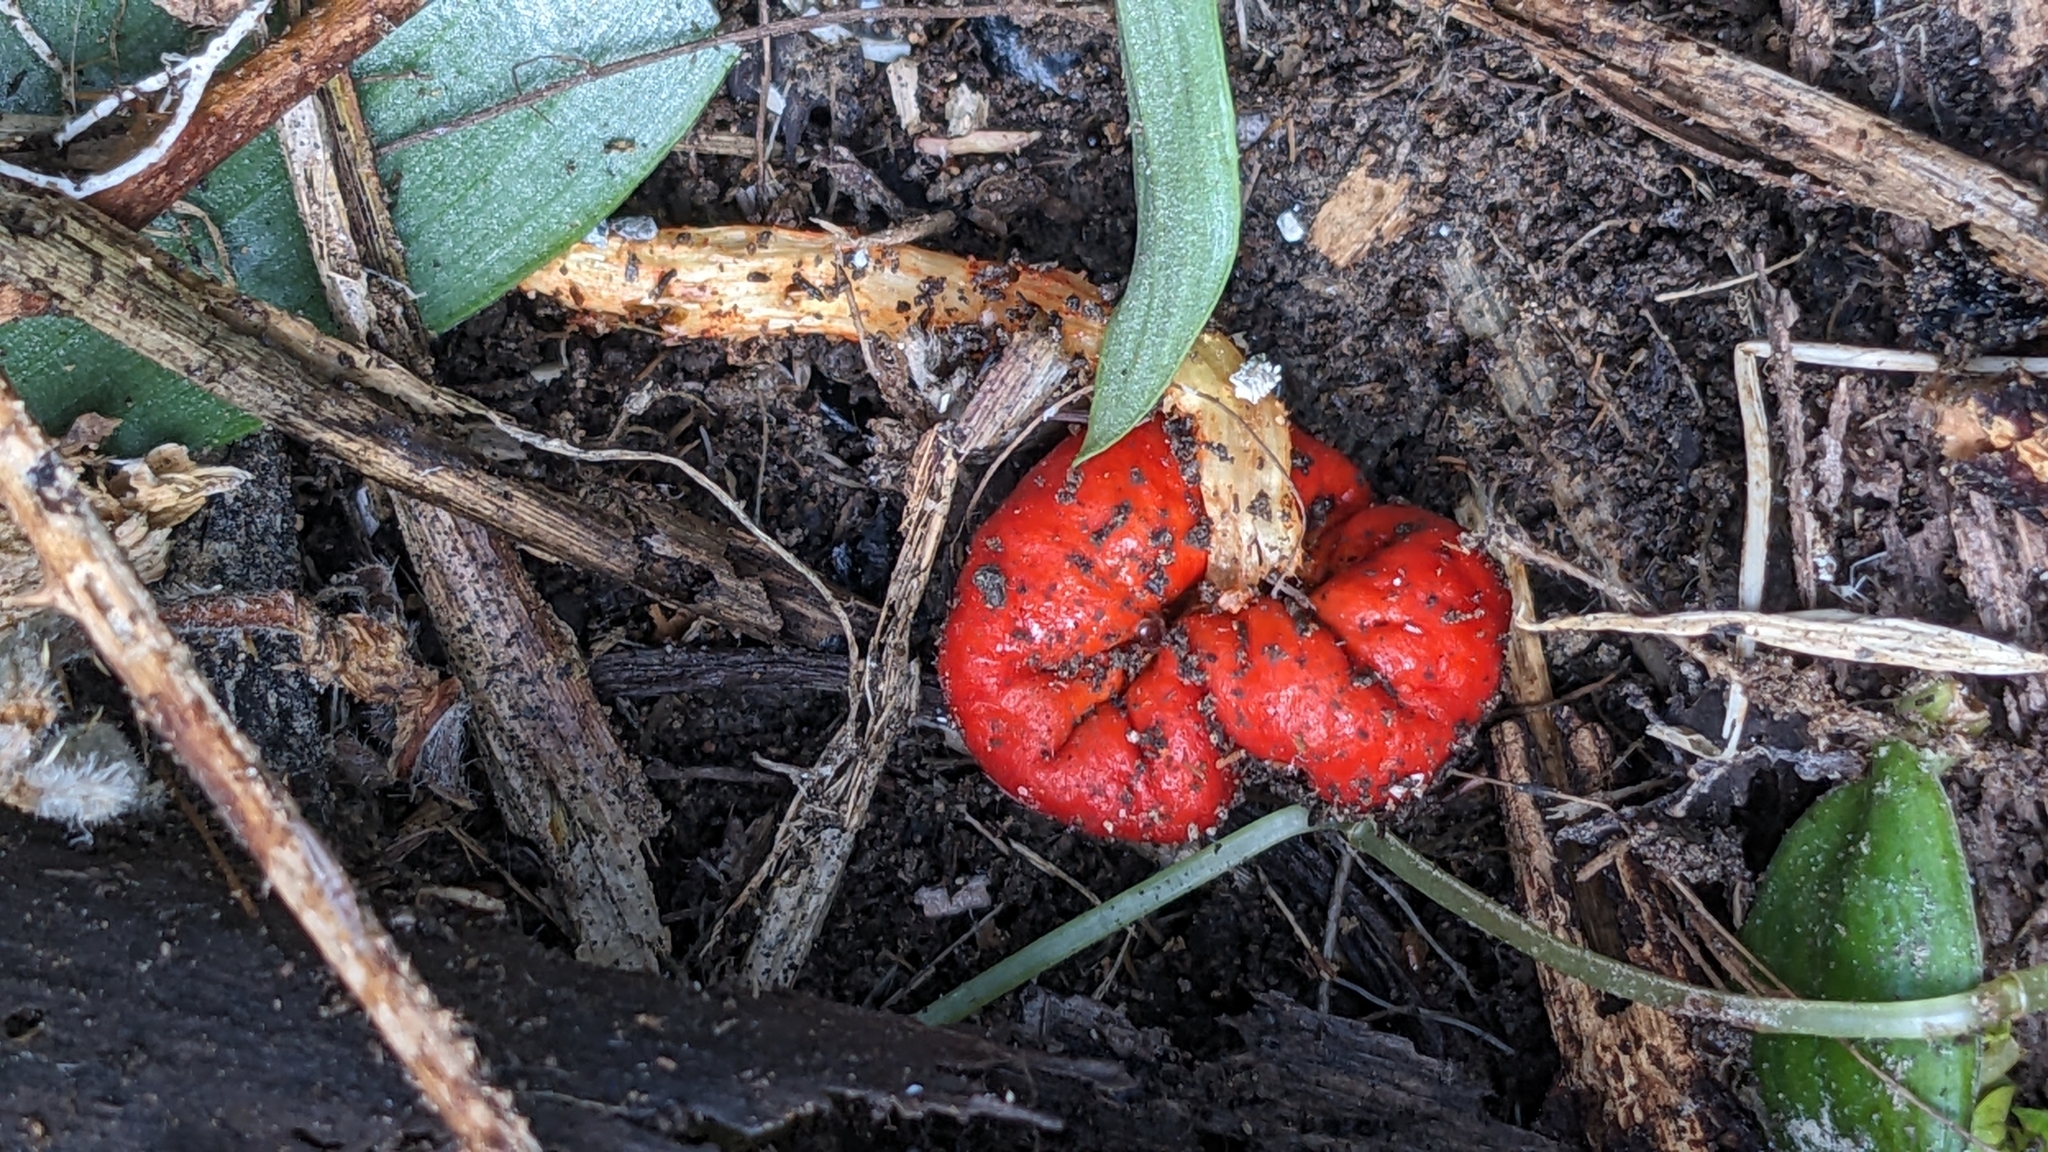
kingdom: Fungi
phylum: Basidiomycota
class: Agaricomycetes
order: Agaricales
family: Strophariaceae
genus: Leratiomyces
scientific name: Leratiomyces erythrocephalus
